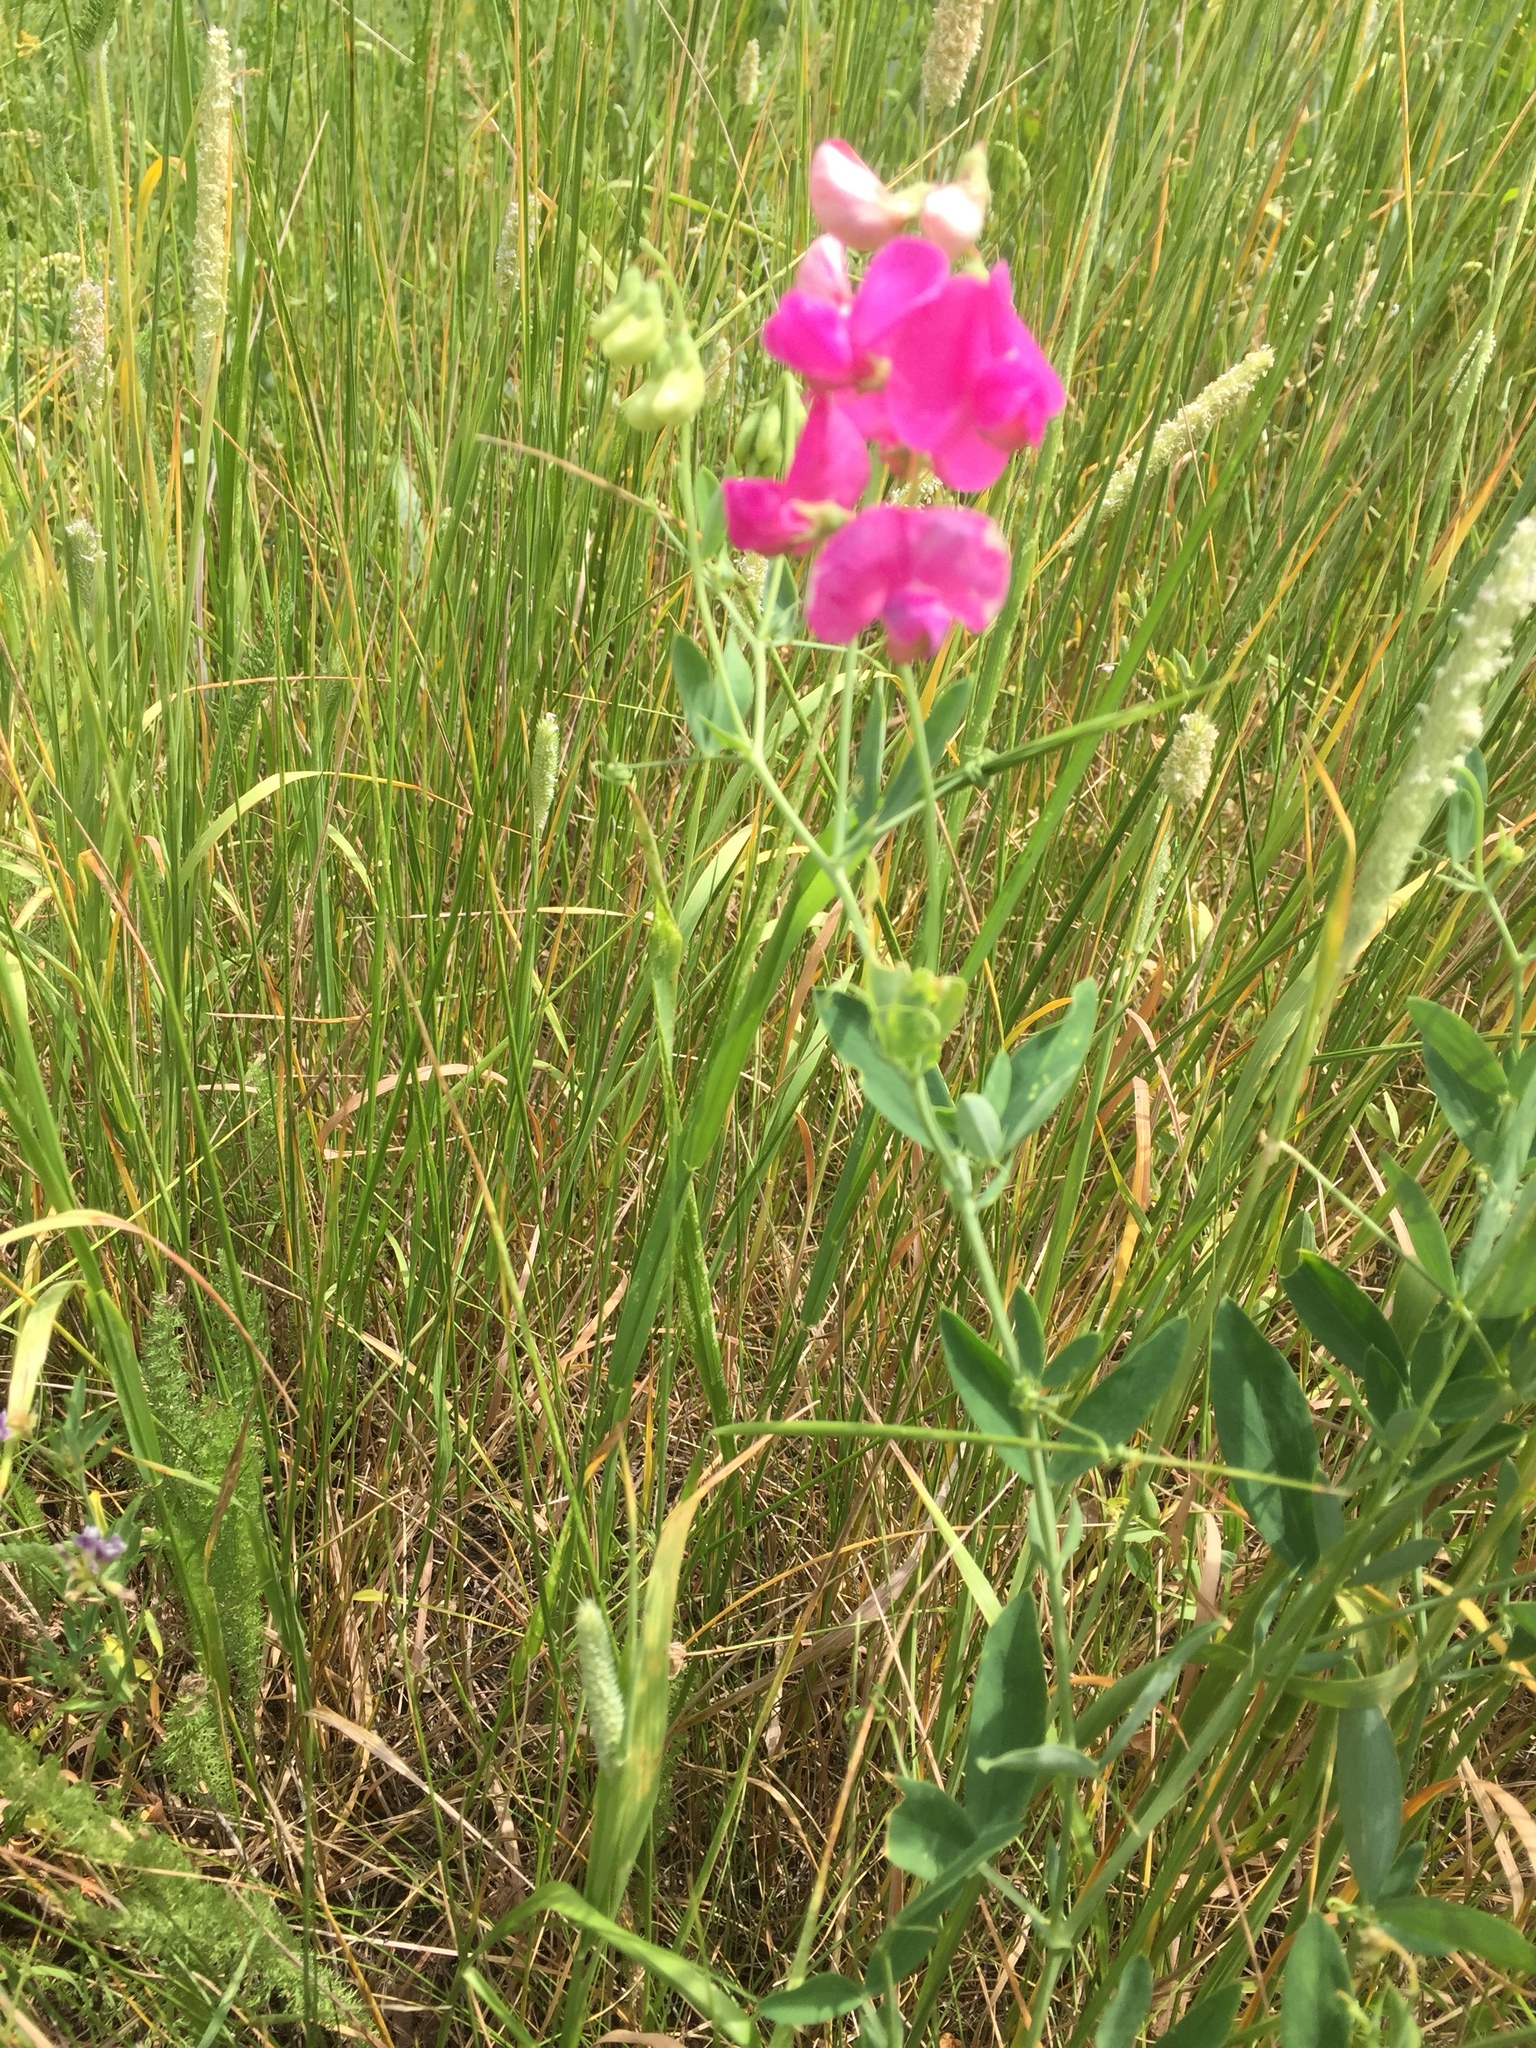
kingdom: Plantae
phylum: Tracheophyta
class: Magnoliopsida
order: Fabales
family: Fabaceae
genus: Lathyrus
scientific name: Lathyrus tuberosus
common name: Tuberous pea
